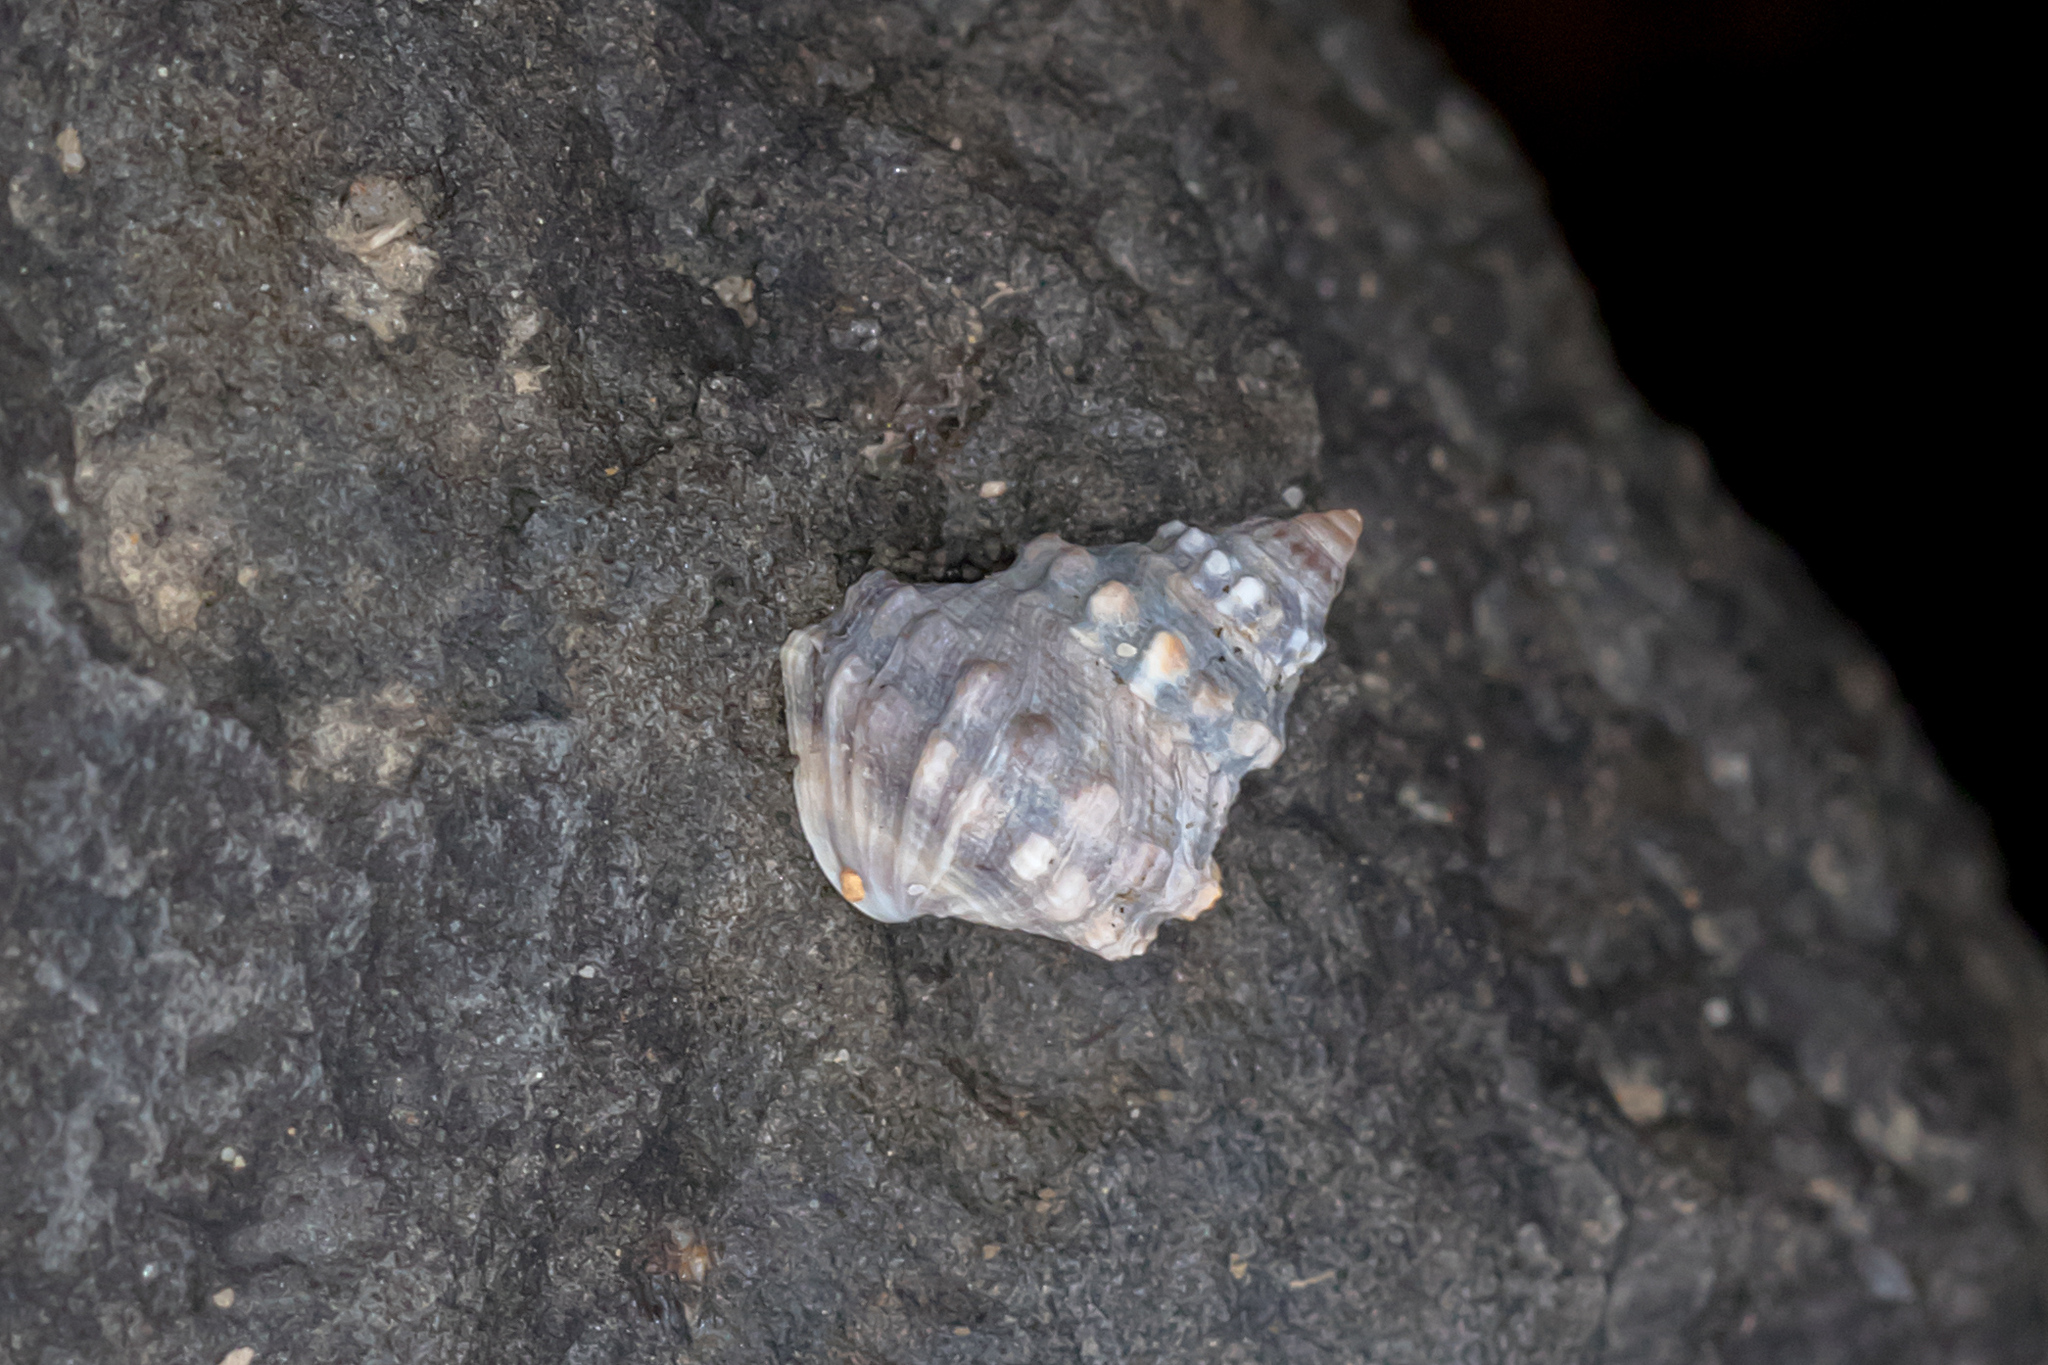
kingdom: Animalia
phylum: Mollusca
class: Gastropoda
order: Littorinimorpha
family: Littorinidae
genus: Nodilittorina
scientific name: Nodilittorina pyramidalis
